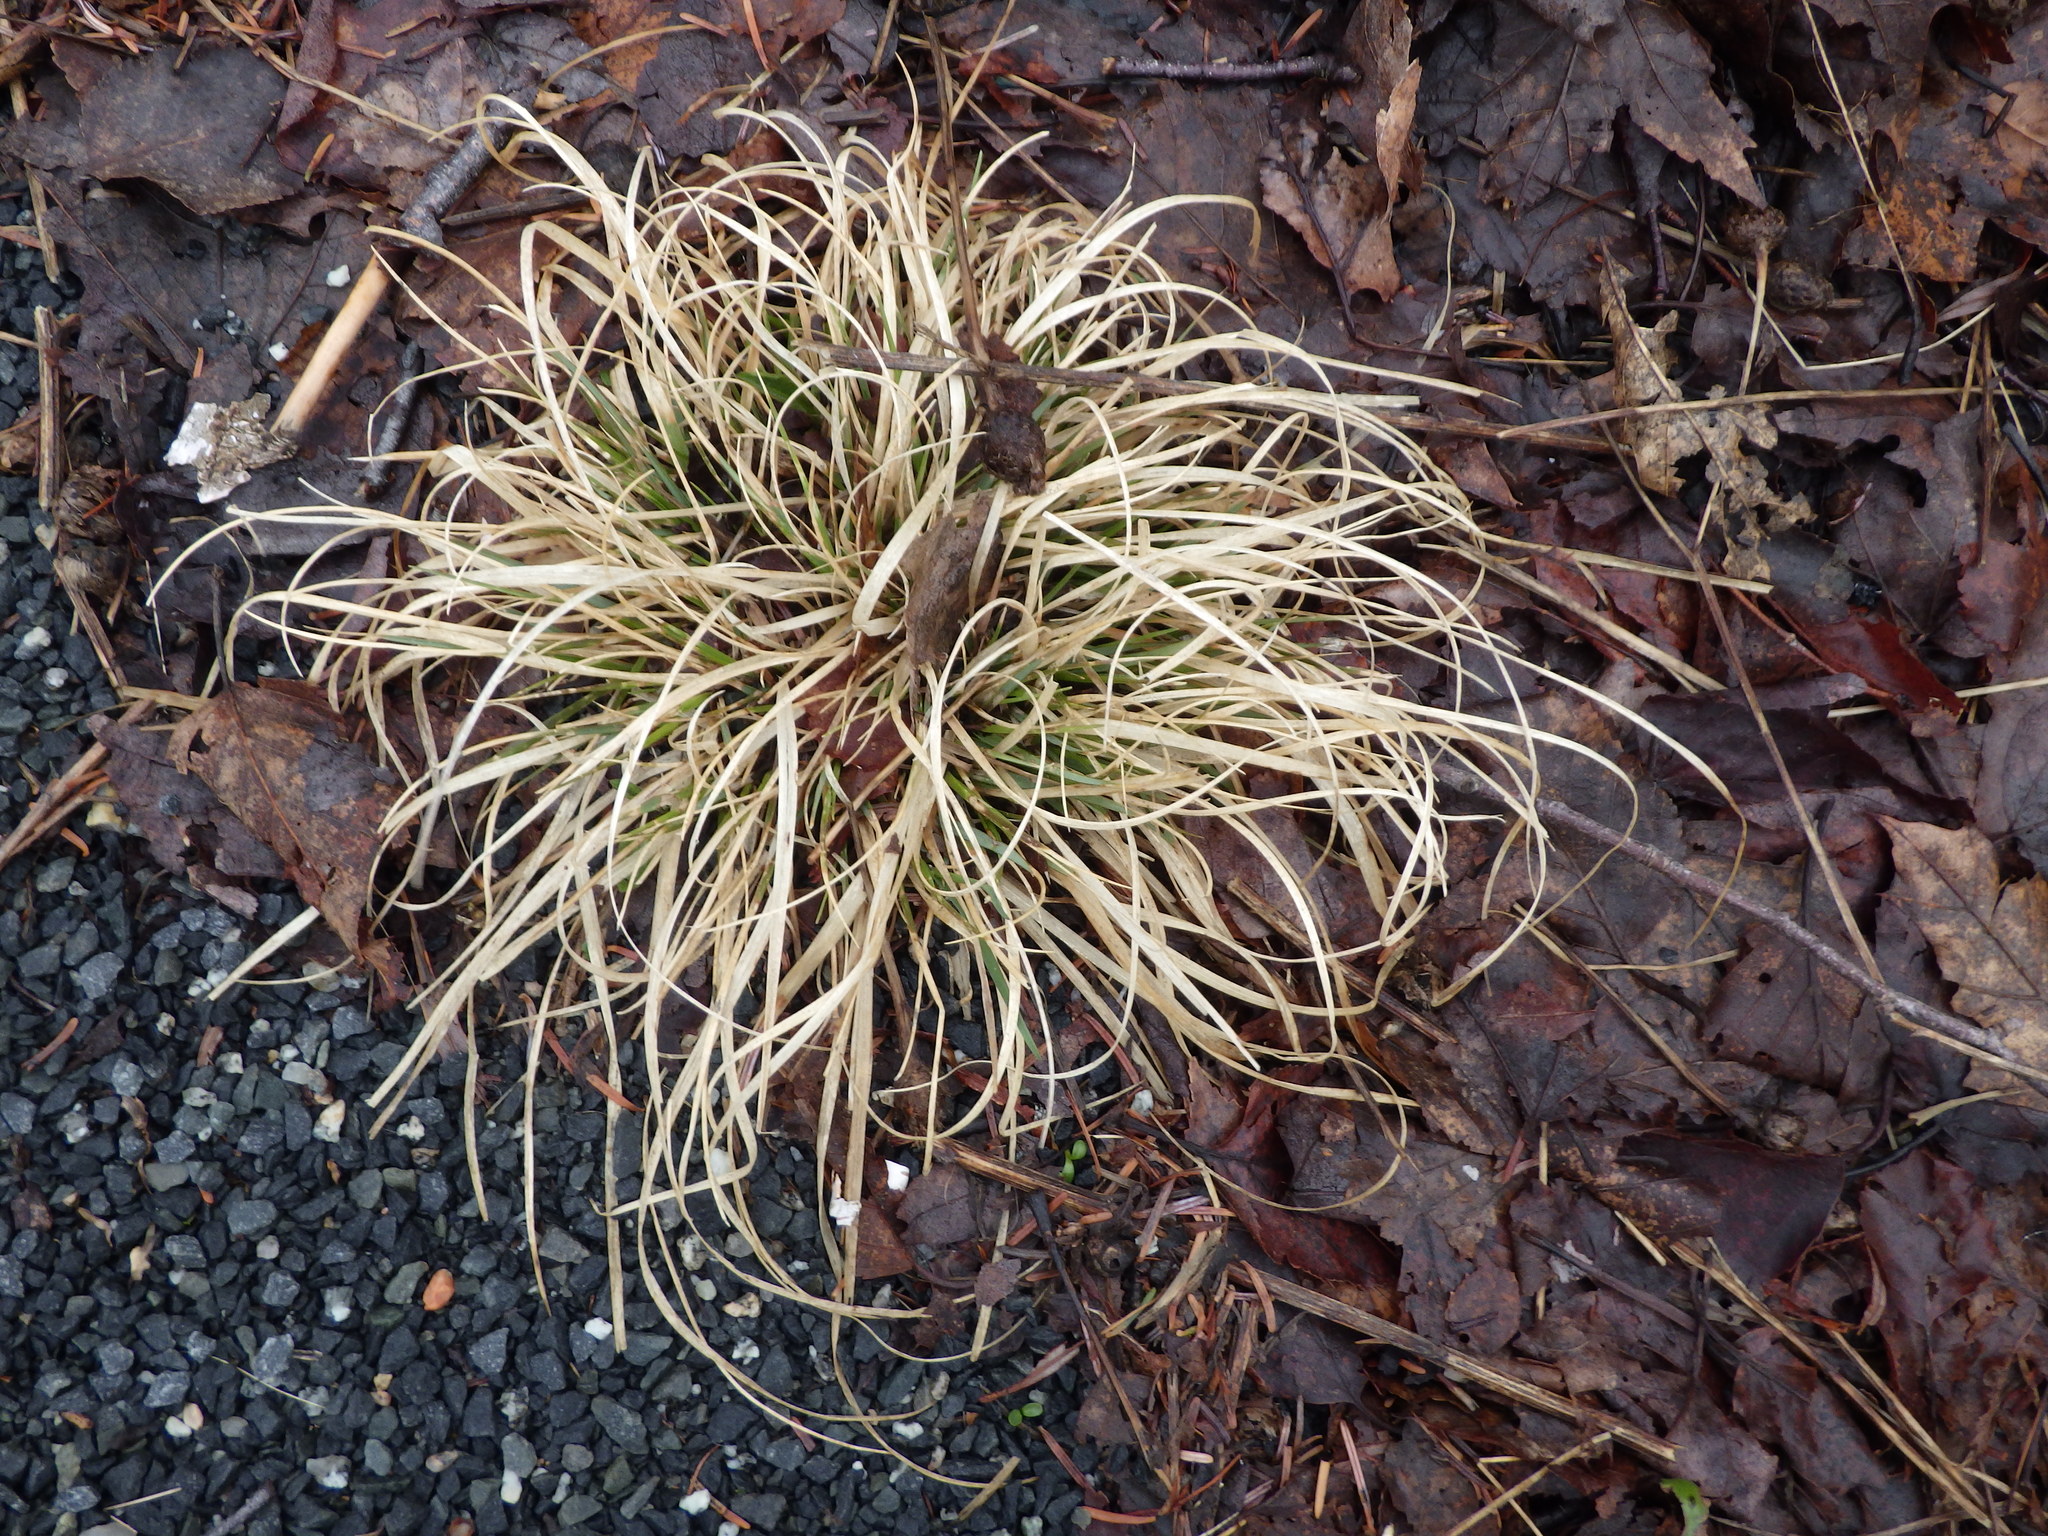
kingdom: Plantae
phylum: Tracheophyta
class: Liliopsida
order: Poales
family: Poaceae
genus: Danthonia
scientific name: Danthonia spicata
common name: Common wild oatgrass
